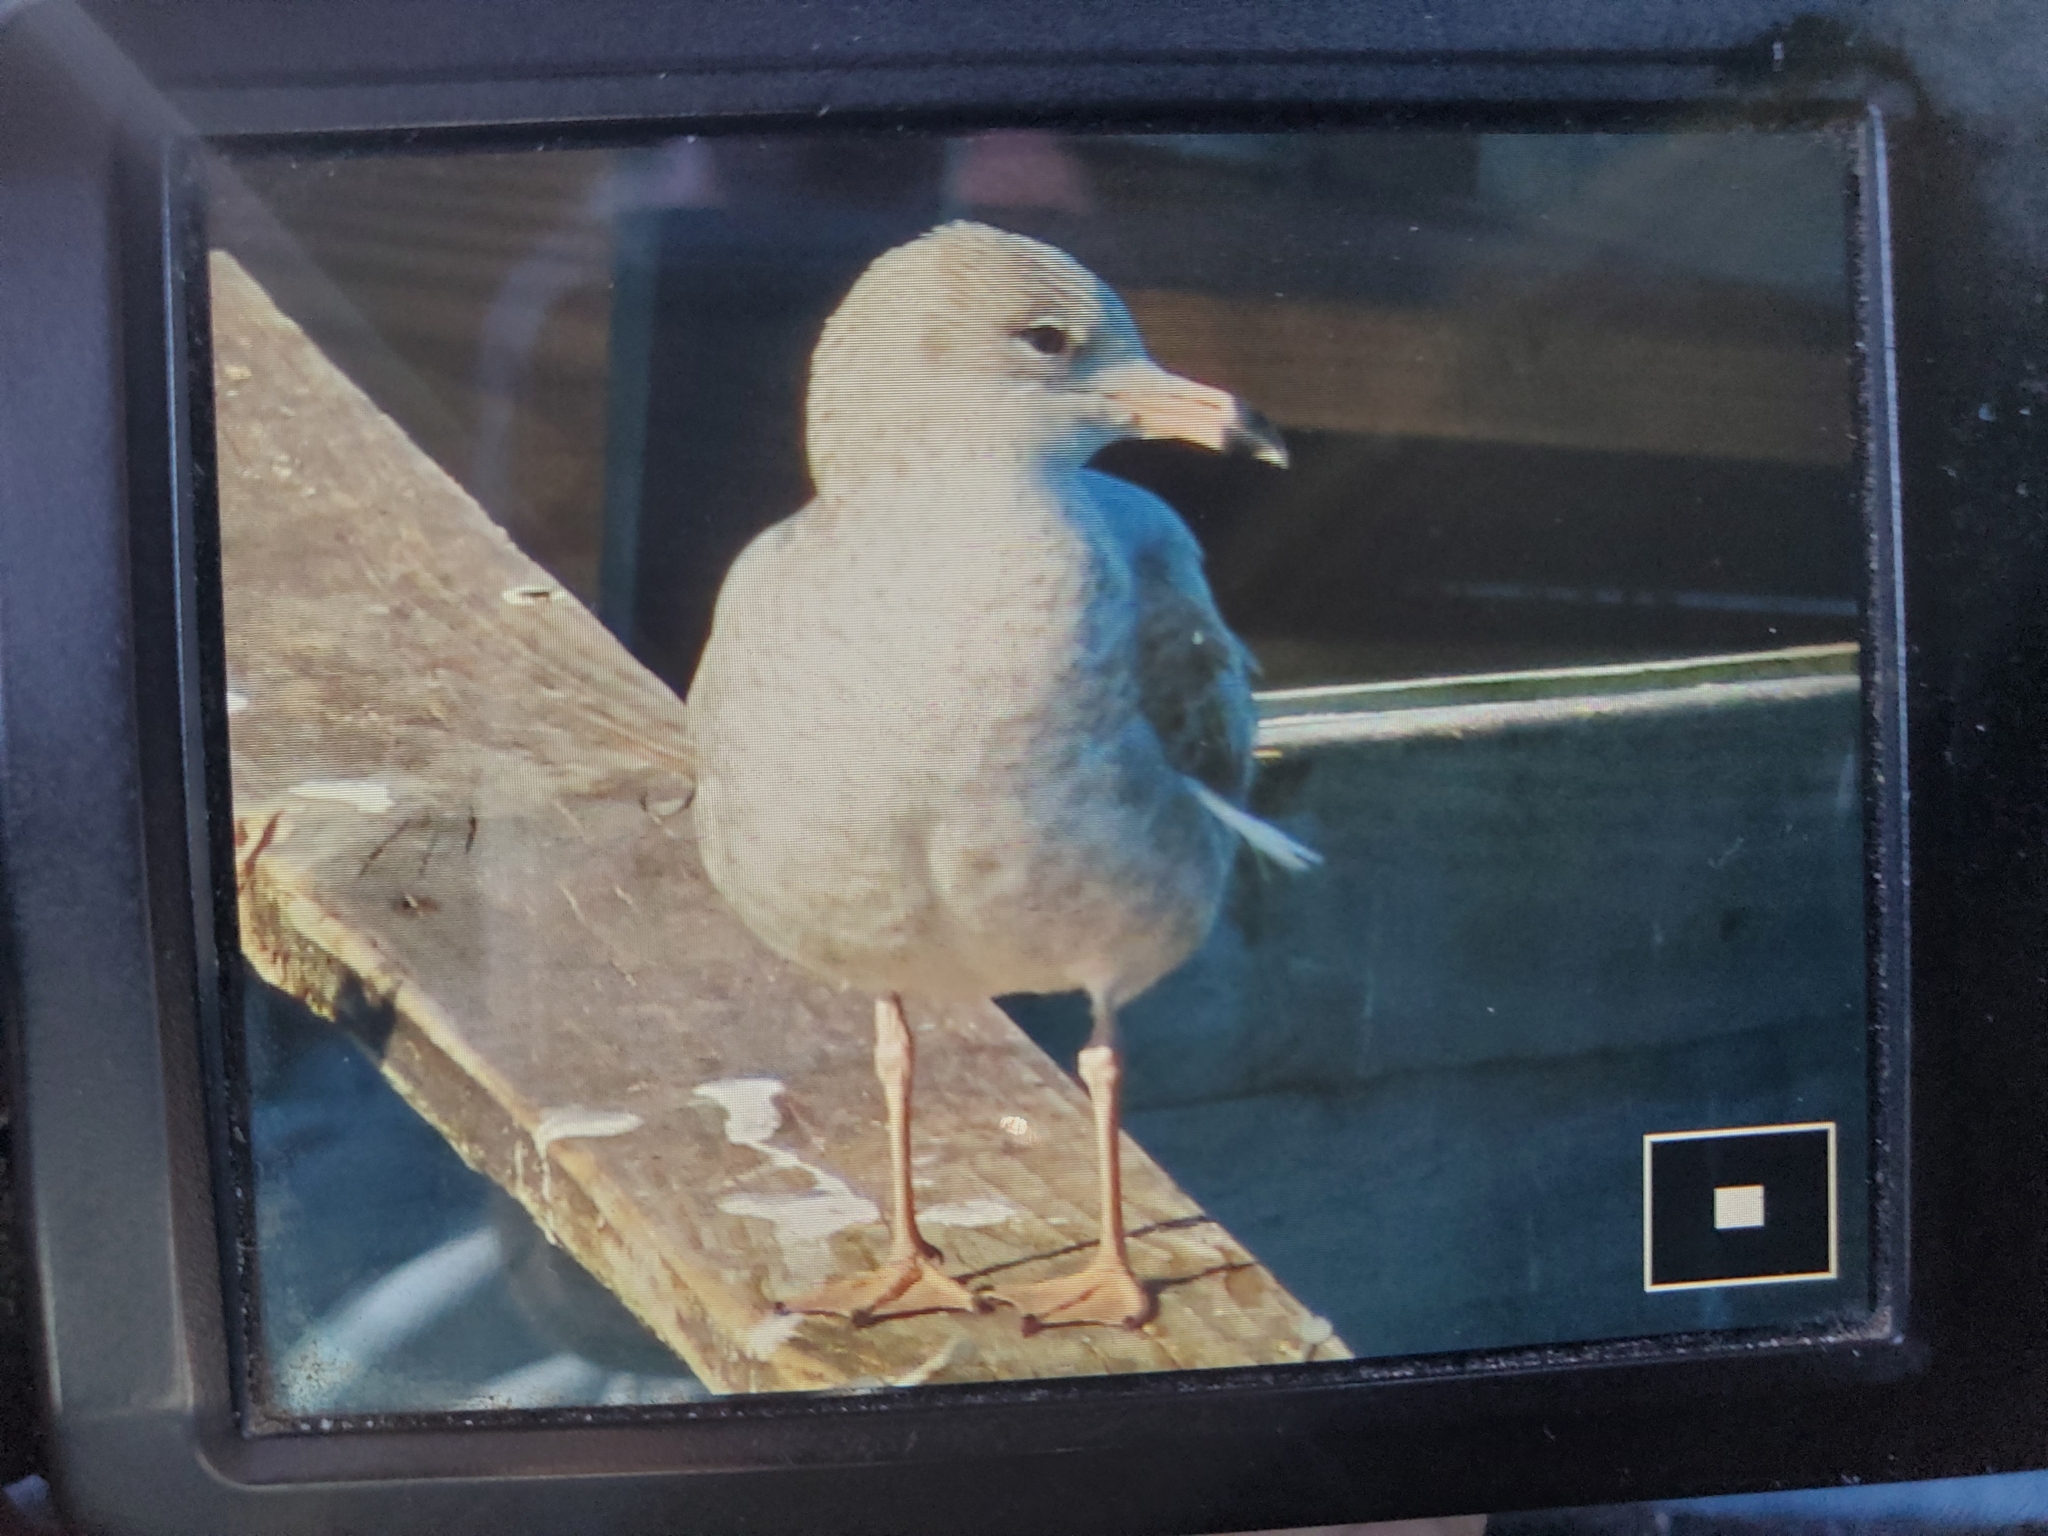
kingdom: Animalia
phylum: Chordata
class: Aves
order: Charadriiformes
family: Laridae
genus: Larus
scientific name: Larus delawarensis
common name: Ring-billed gull
